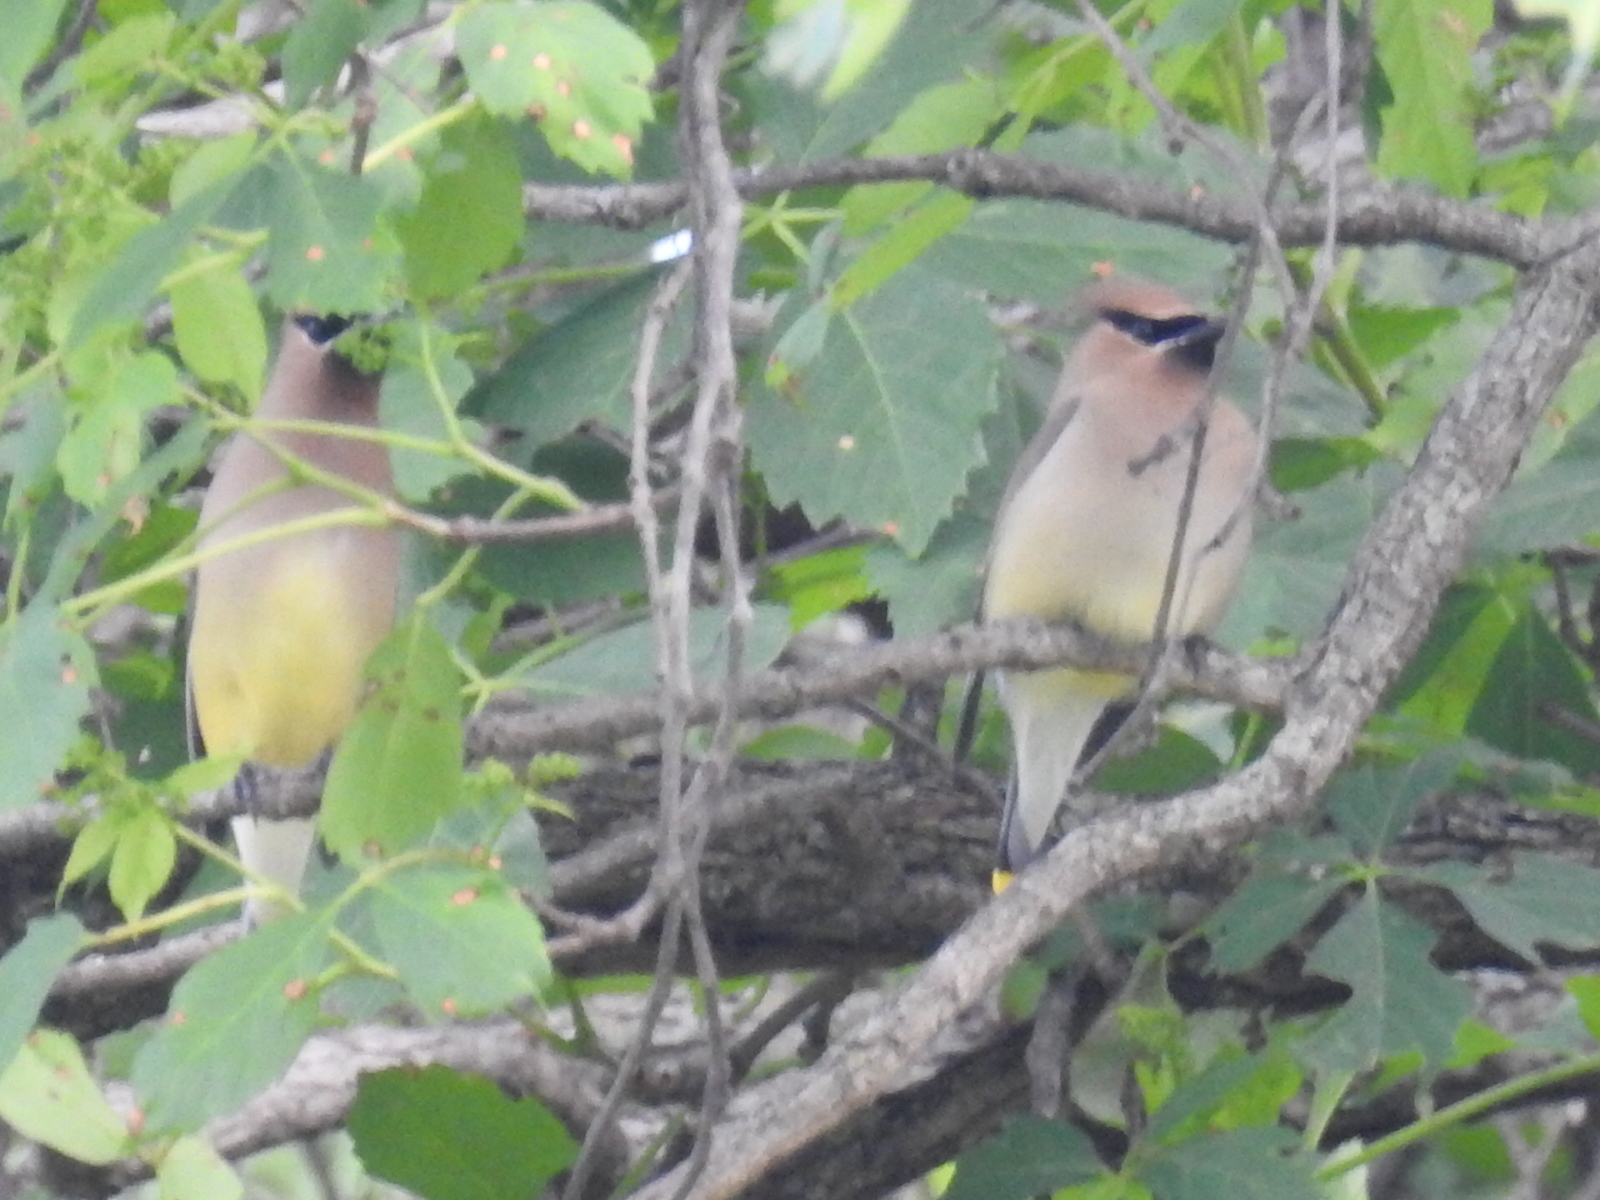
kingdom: Animalia
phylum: Chordata
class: Aves
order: Passeriformes
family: Bombycillidae
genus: Bombycilla
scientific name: Bombycilla cedrorum
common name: Cedar waxwing
